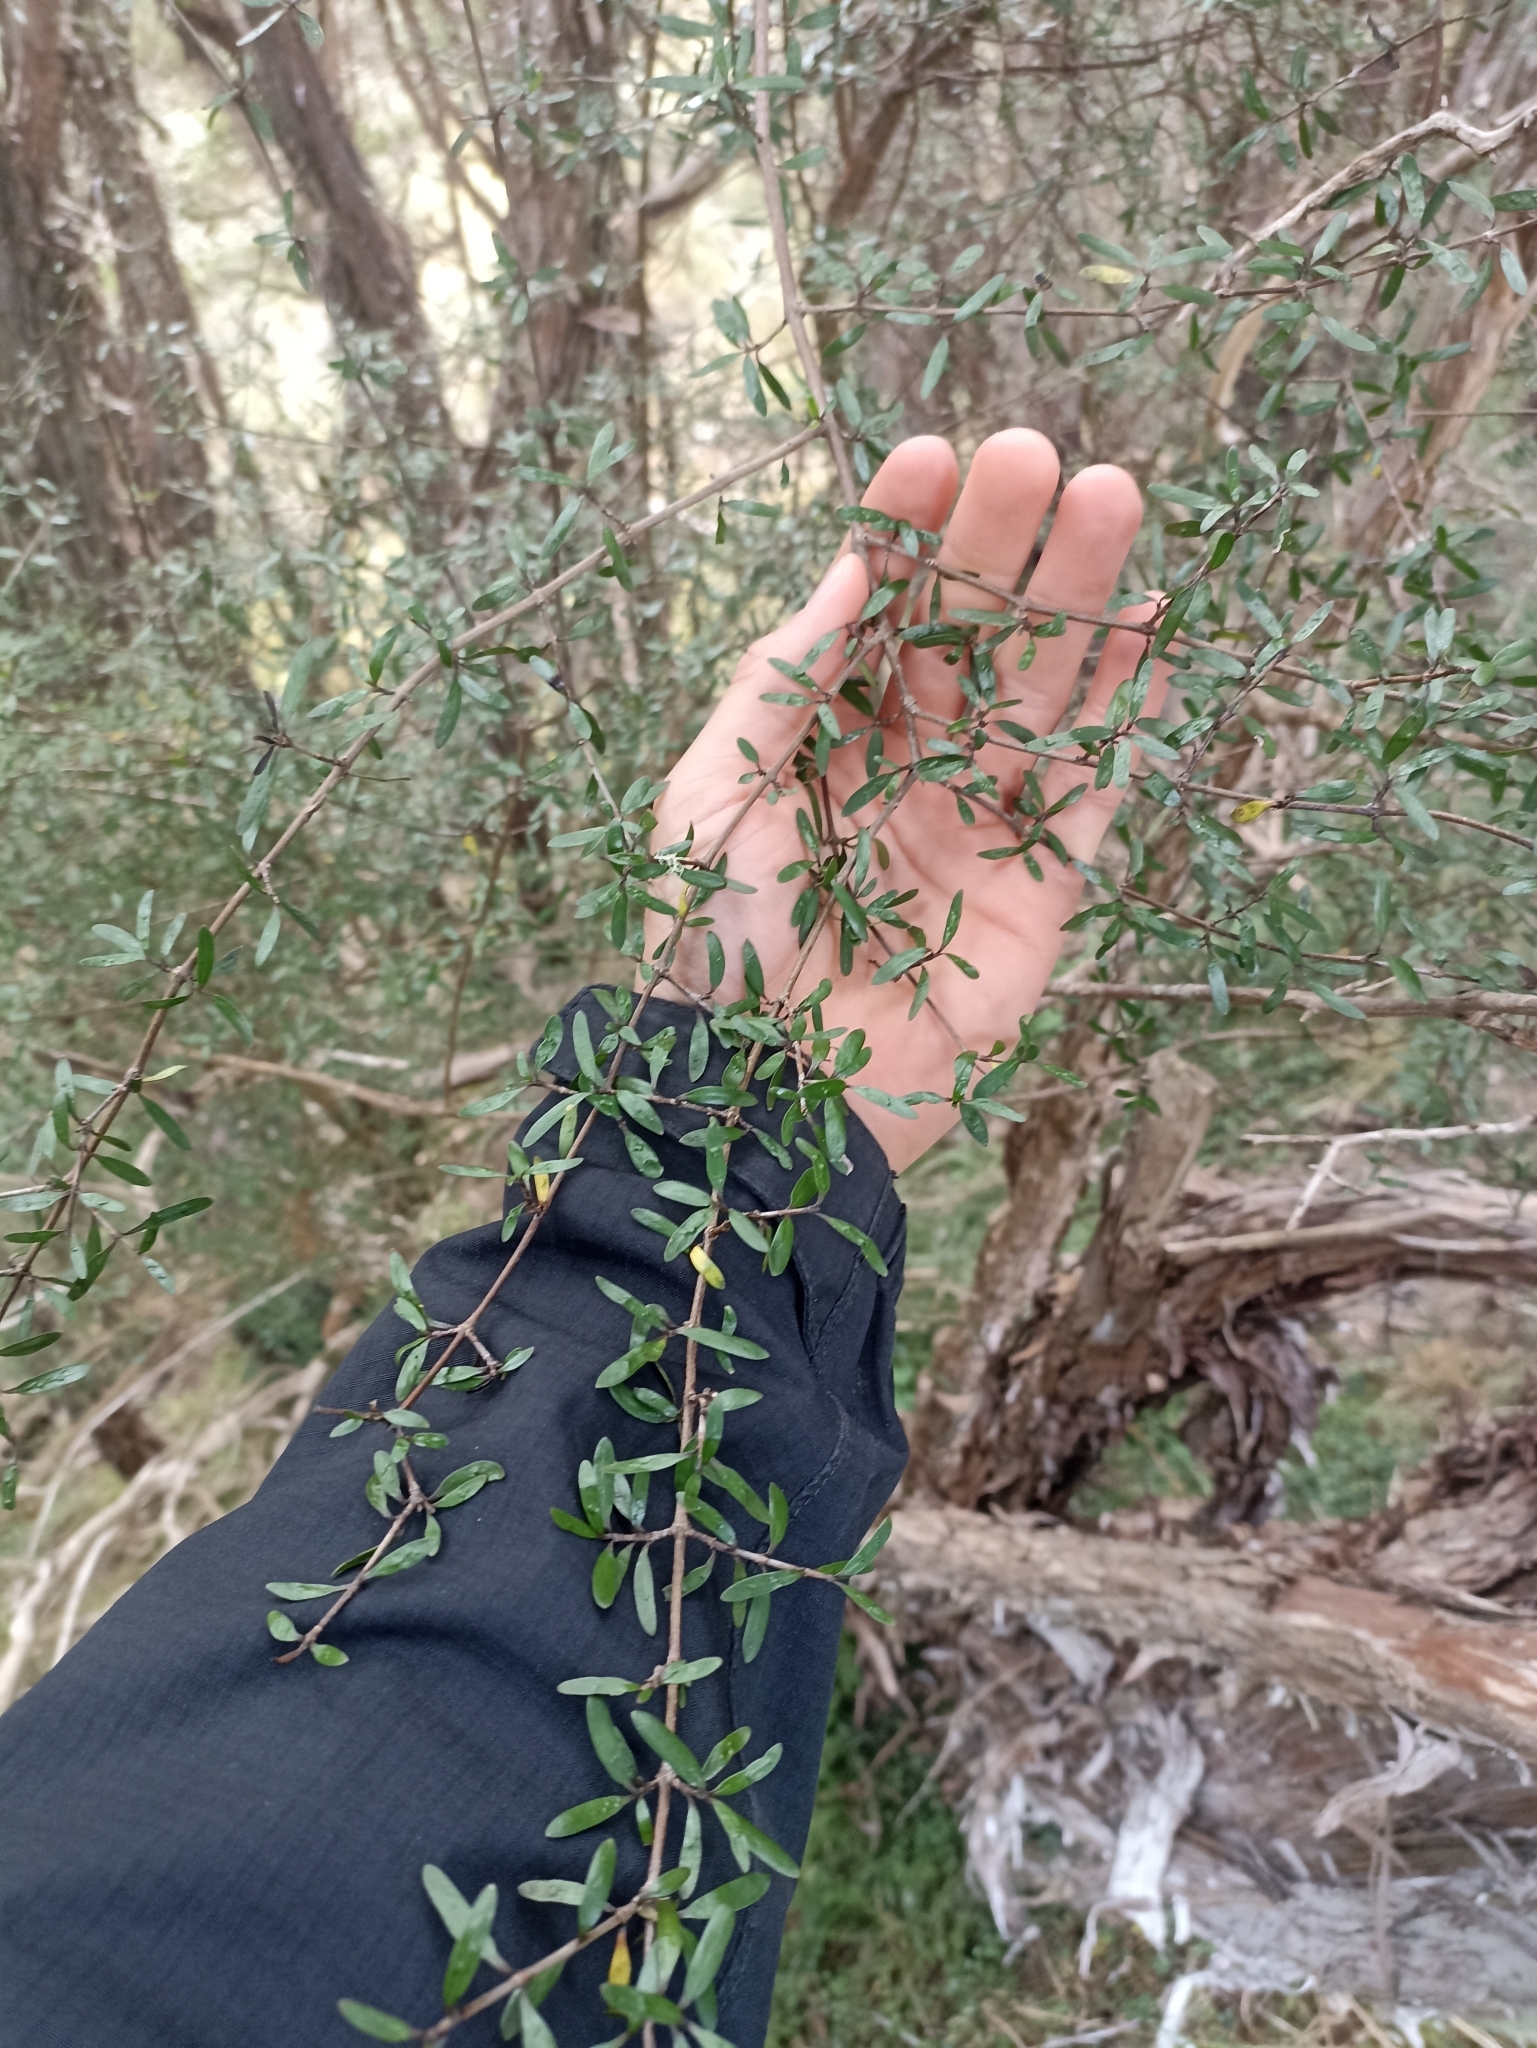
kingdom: Plantae
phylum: Tracheophyta
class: Magnoliopsida
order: Gentianales
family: Rubiaceae
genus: Coprosma
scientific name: Coprosma propinqua
